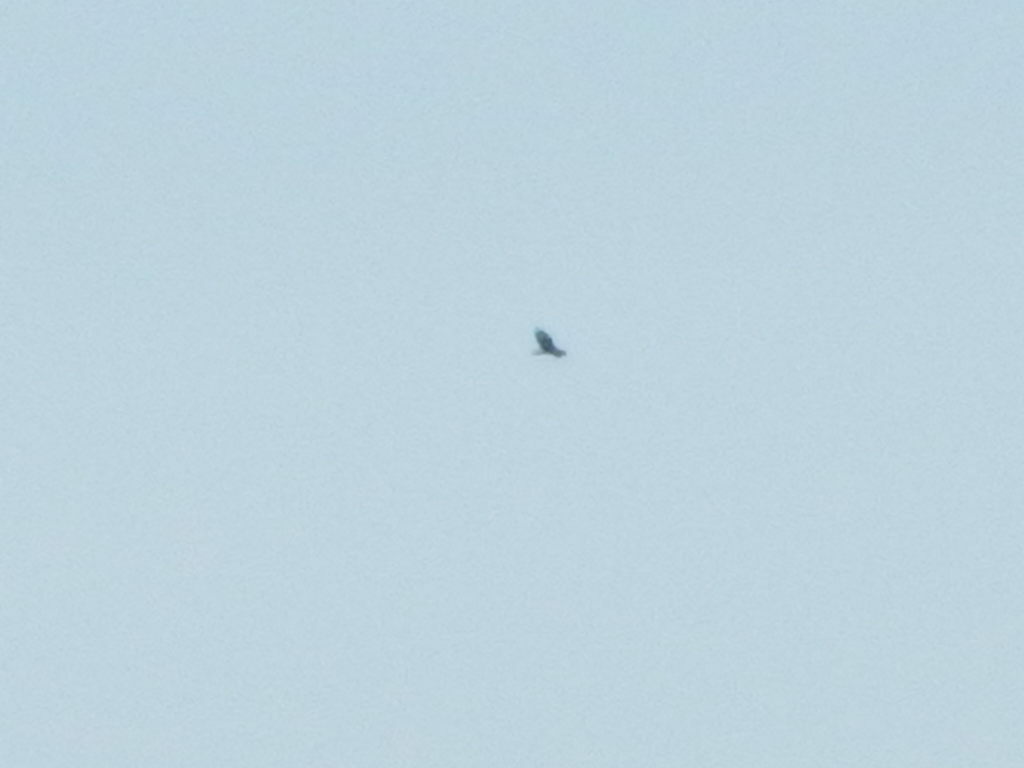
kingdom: Animalia
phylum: Chordata
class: Aves
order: Accipitriformes
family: Cathartidae
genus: Cathartes
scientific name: Cathartes aura
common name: Turkey vulture
